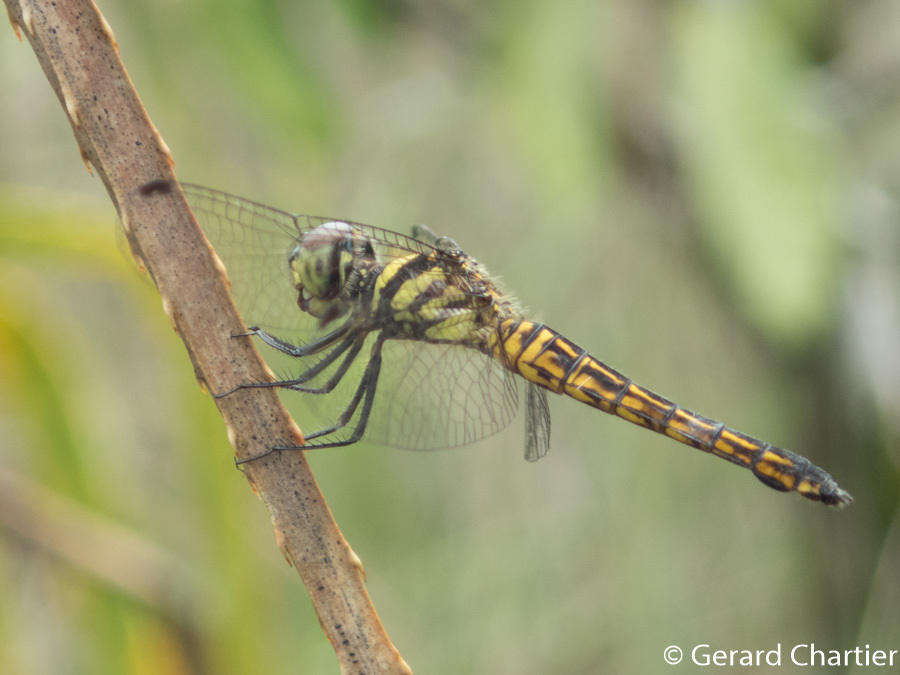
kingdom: Animalia
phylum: Arthropoda
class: Insecta
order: Odonata
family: Libellulidae
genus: Potamarcha
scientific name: Potamarcha congener
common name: Blue chaser
